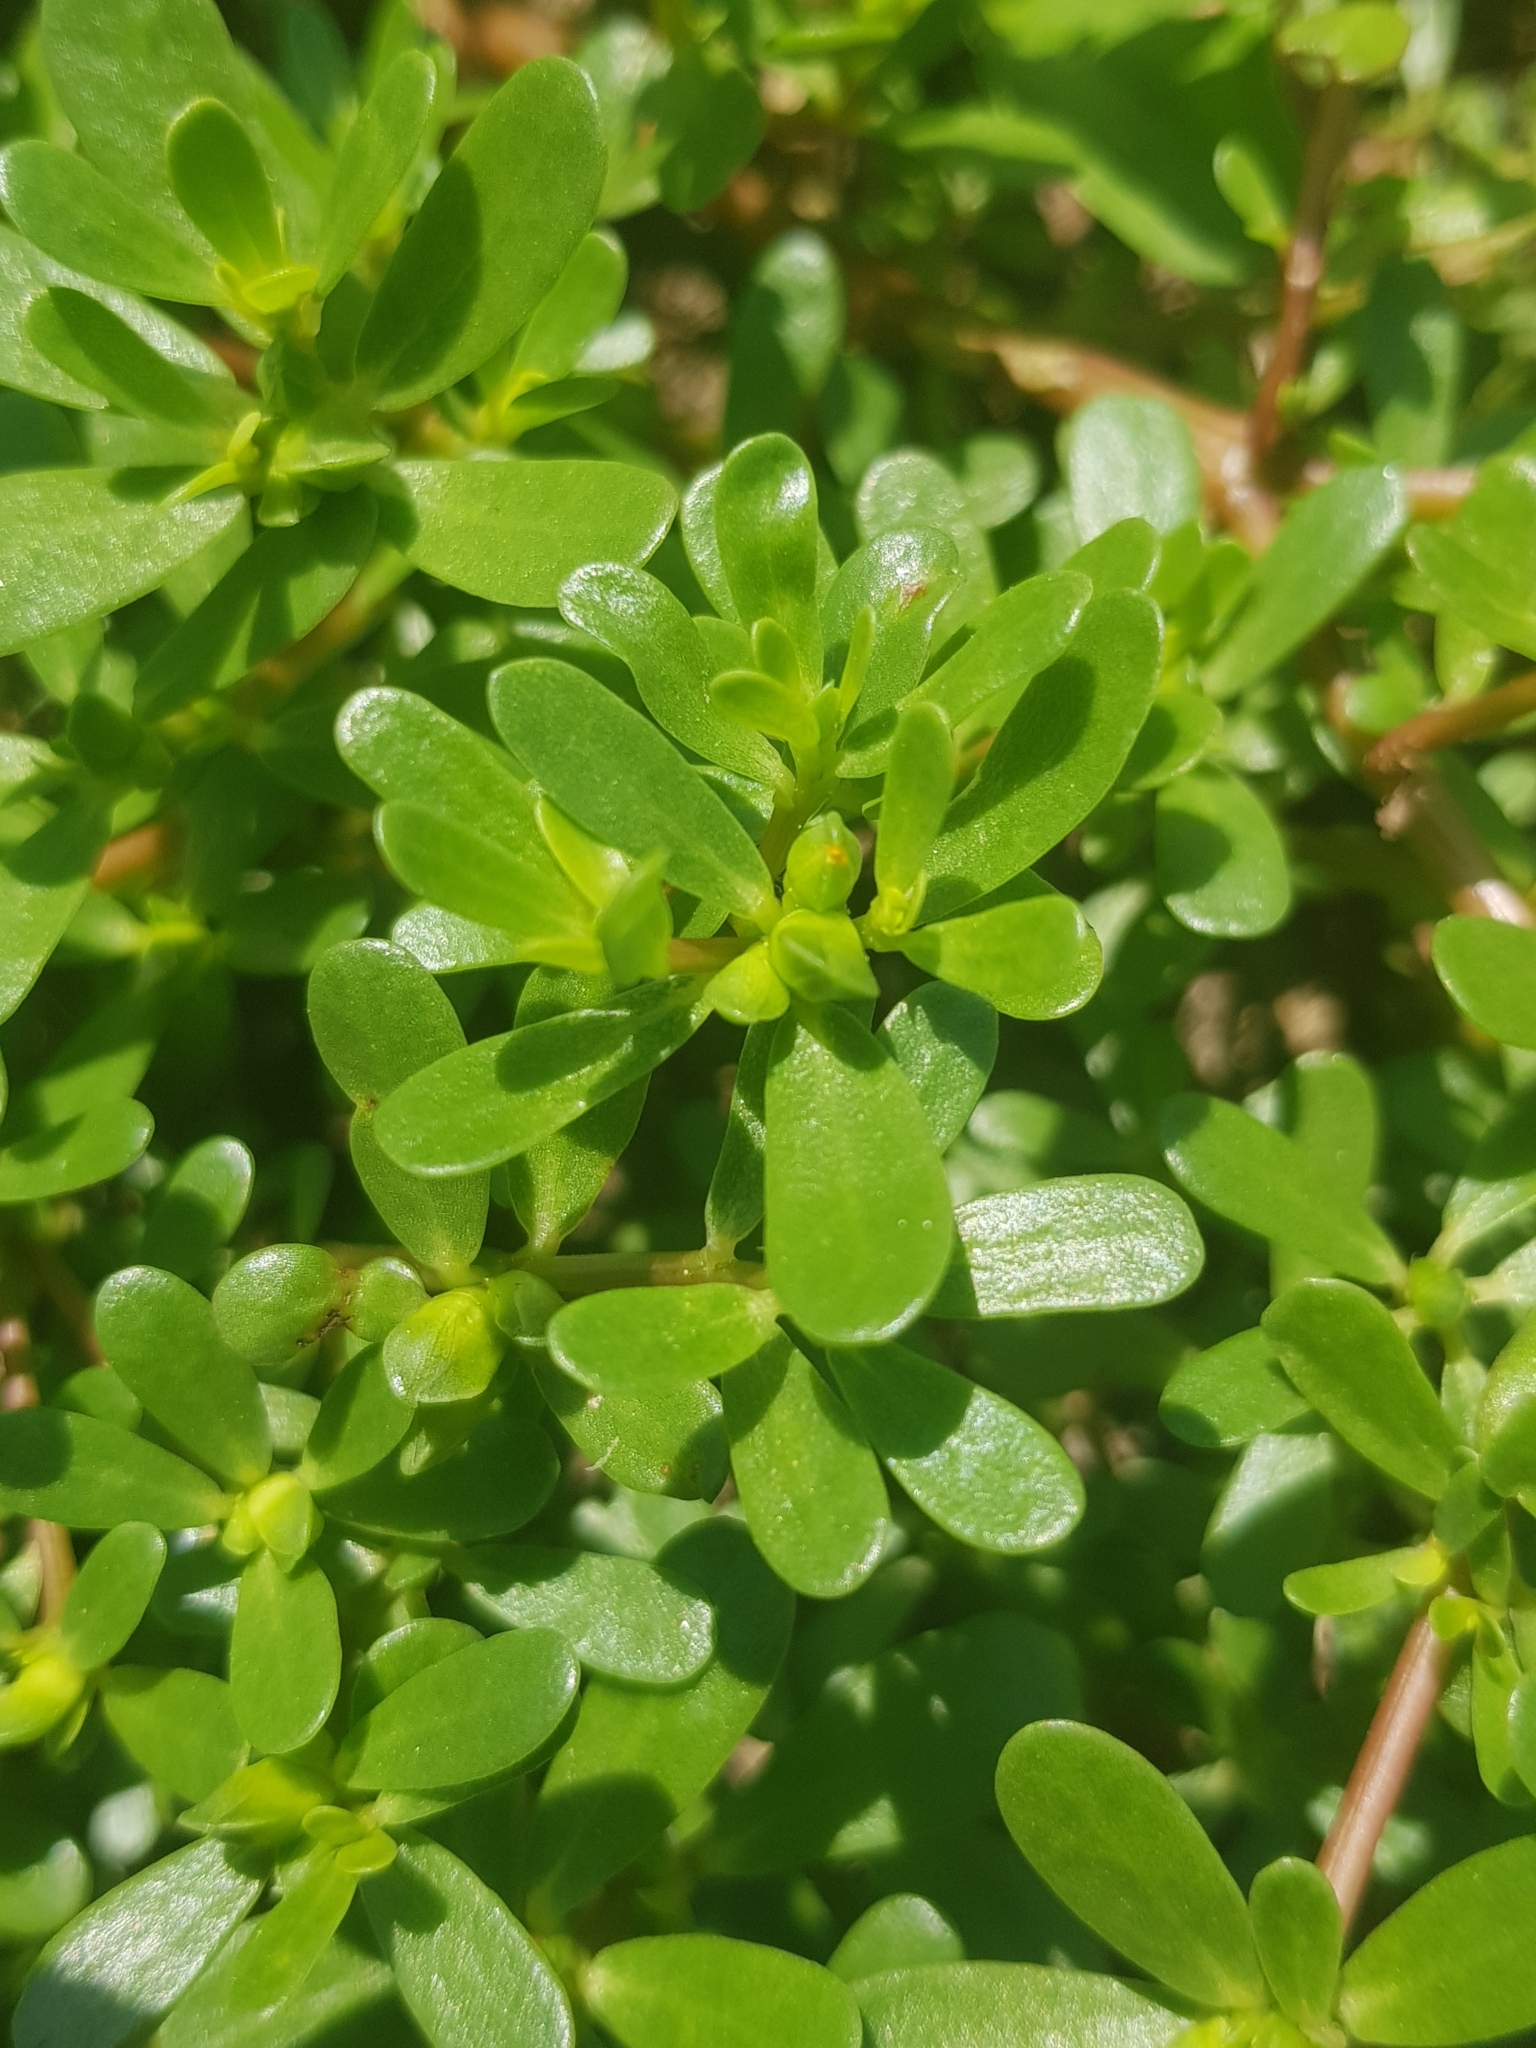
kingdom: Plantae
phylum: Tracheophyta
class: Magnoliopsida
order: Caryophyllales
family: Portulacaceae
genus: Portulaca
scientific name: Portulaca oleracea
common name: Common purslane
